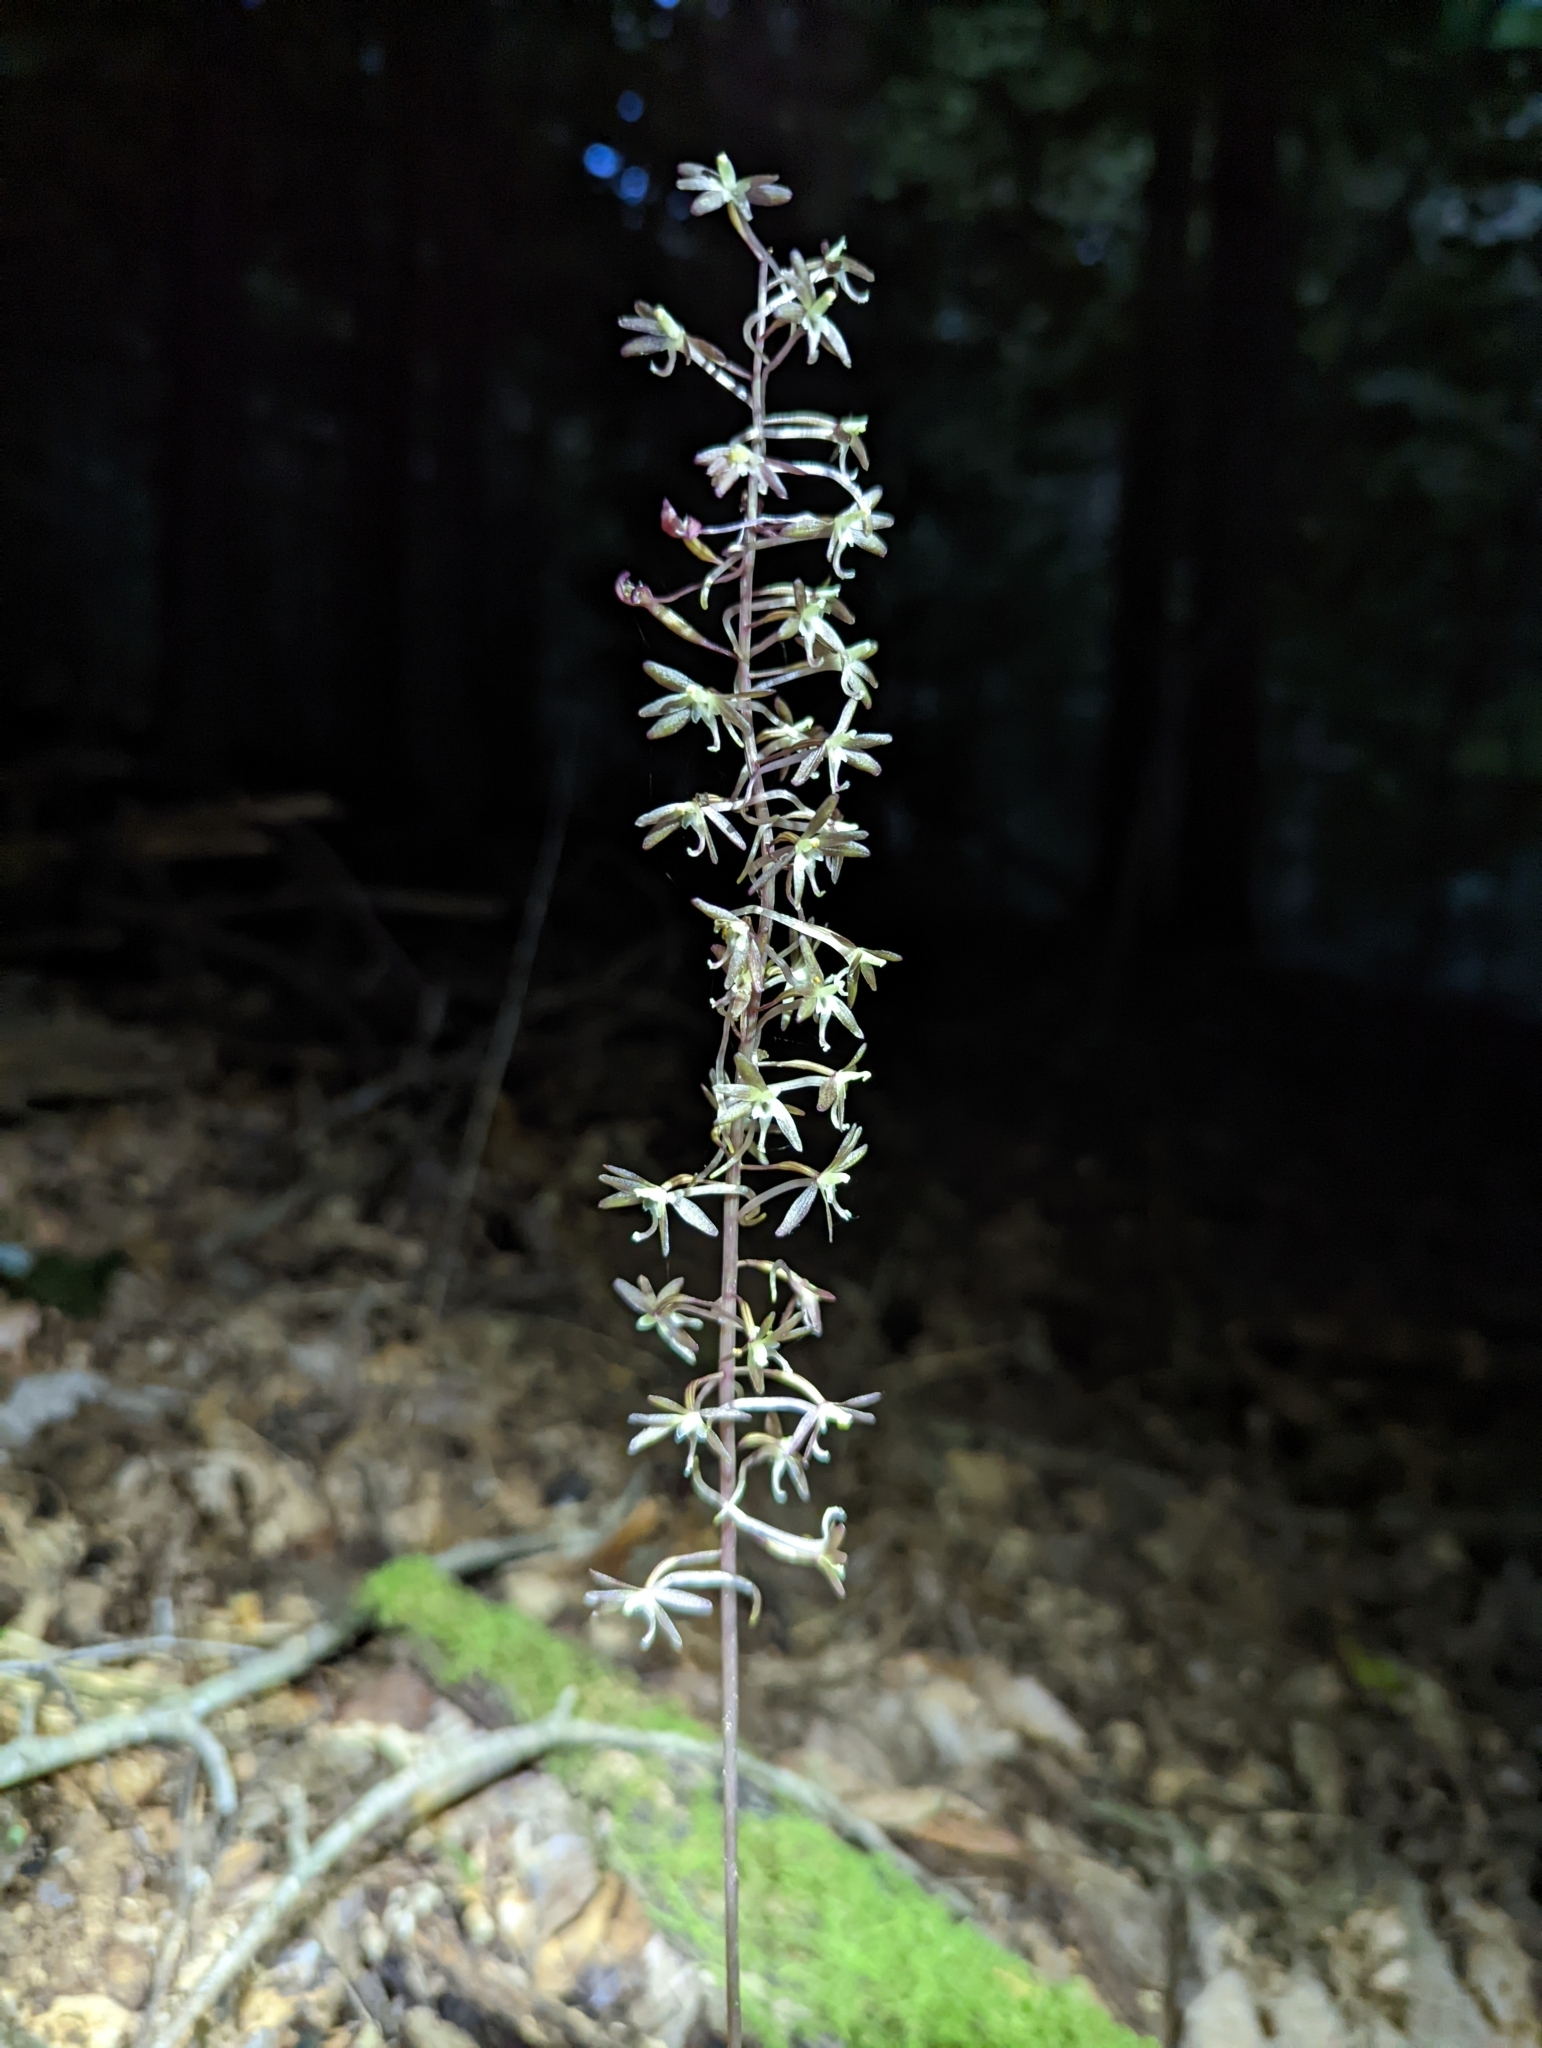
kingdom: Plantae
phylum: Tracheophyta
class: Liliopsida
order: Asparagales
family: Orchidaceae
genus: Tipularia
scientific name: Tipularia discolor
